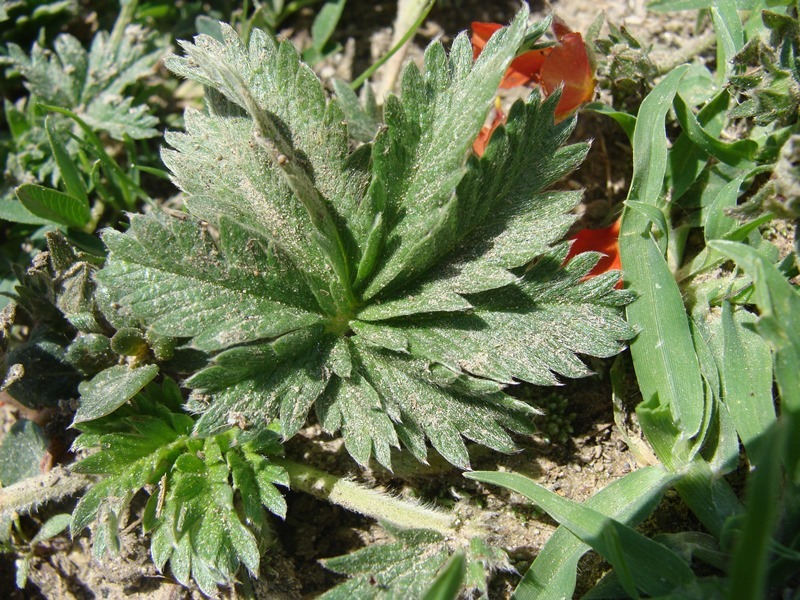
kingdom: Plantae
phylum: Tracheophyta
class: Magnoliopsida
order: Rosales
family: Rosaceae
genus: Potentilla
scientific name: Potentilla ehrenbergiana
